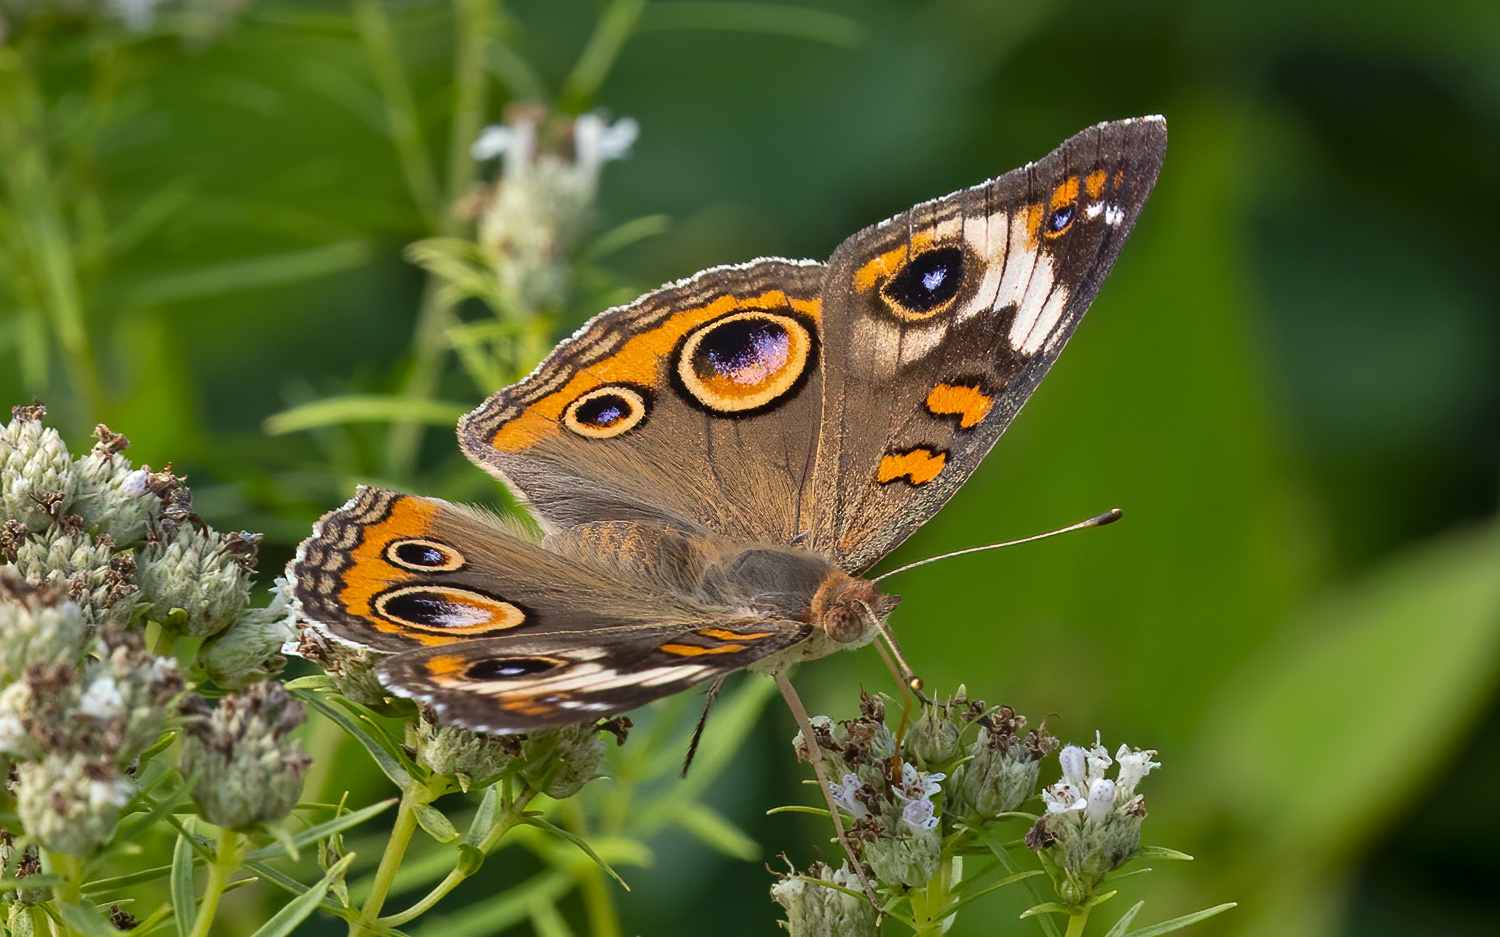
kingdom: Animalia
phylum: Arthropoda
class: Insecta
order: Lepidoptera
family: Nymphalidae
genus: Junonia
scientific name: Junonia coenia
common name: Common buckeye
